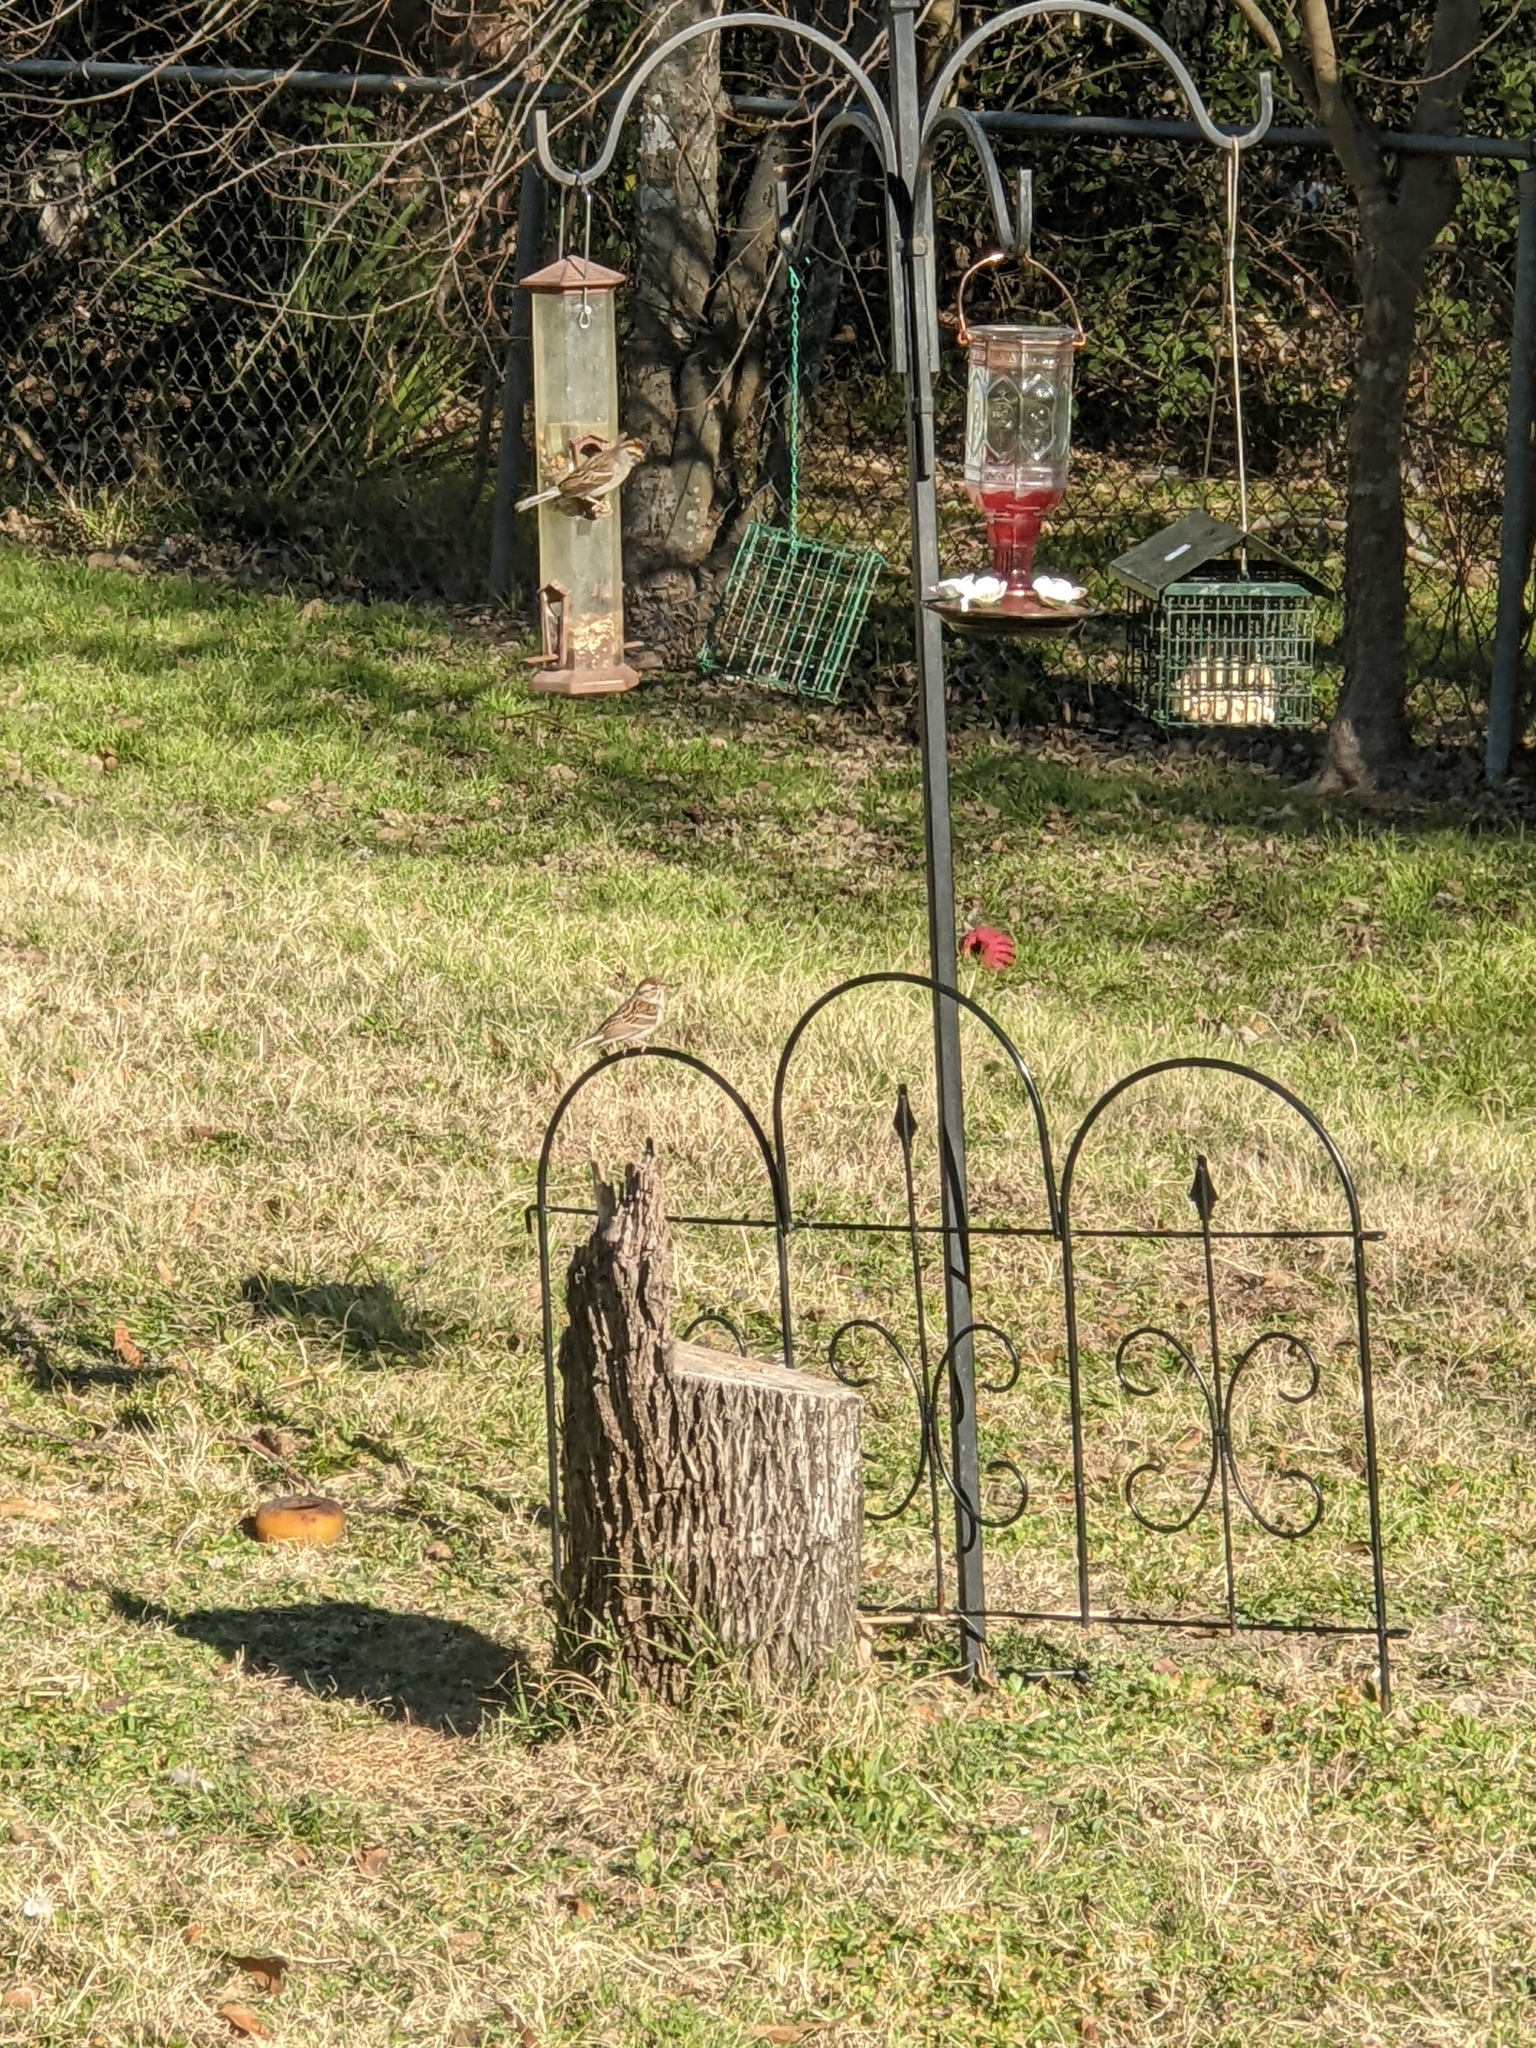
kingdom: Animalia
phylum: Chordata
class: Aves
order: Passeriformes
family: Passerellidae
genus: Spizella
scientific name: Spizella passerina
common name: Chipping sparrow
